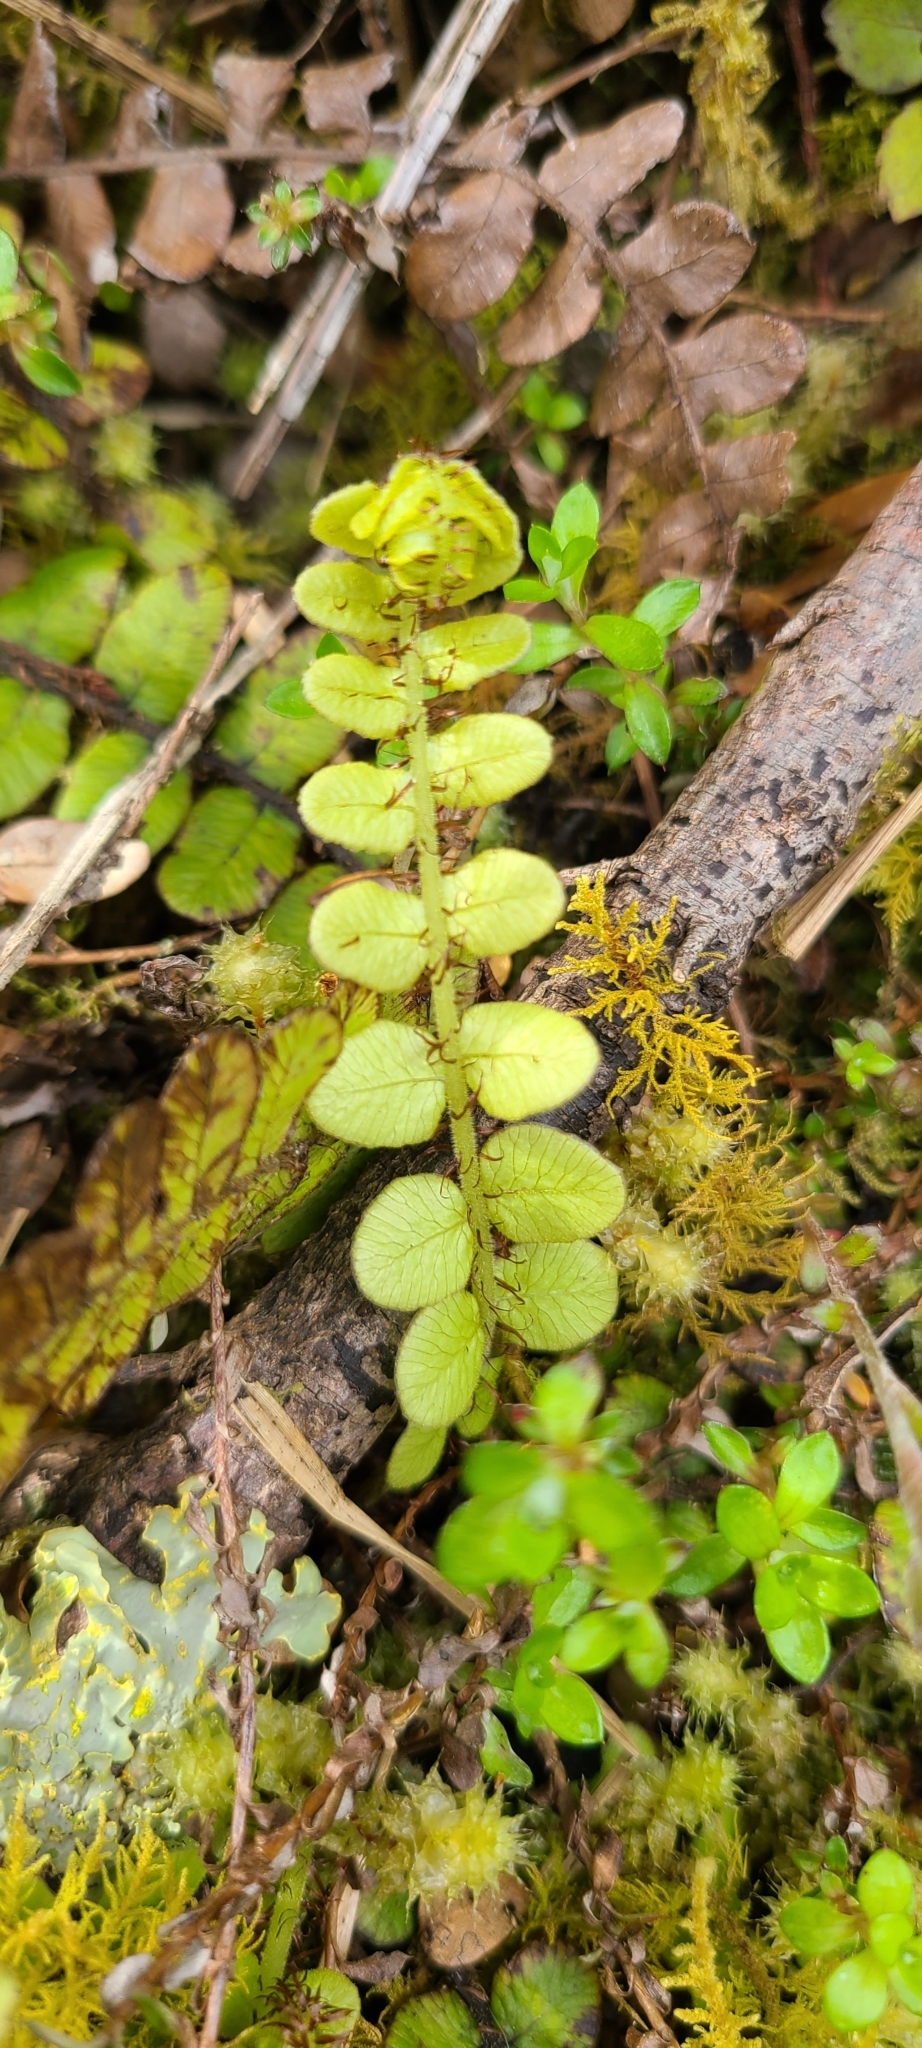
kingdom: Plantae
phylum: Tracheophyta
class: Polypodiopsida
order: Polypodiales
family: Blechnaceae
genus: Cranfillia
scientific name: Cranfillia fluviatilis
